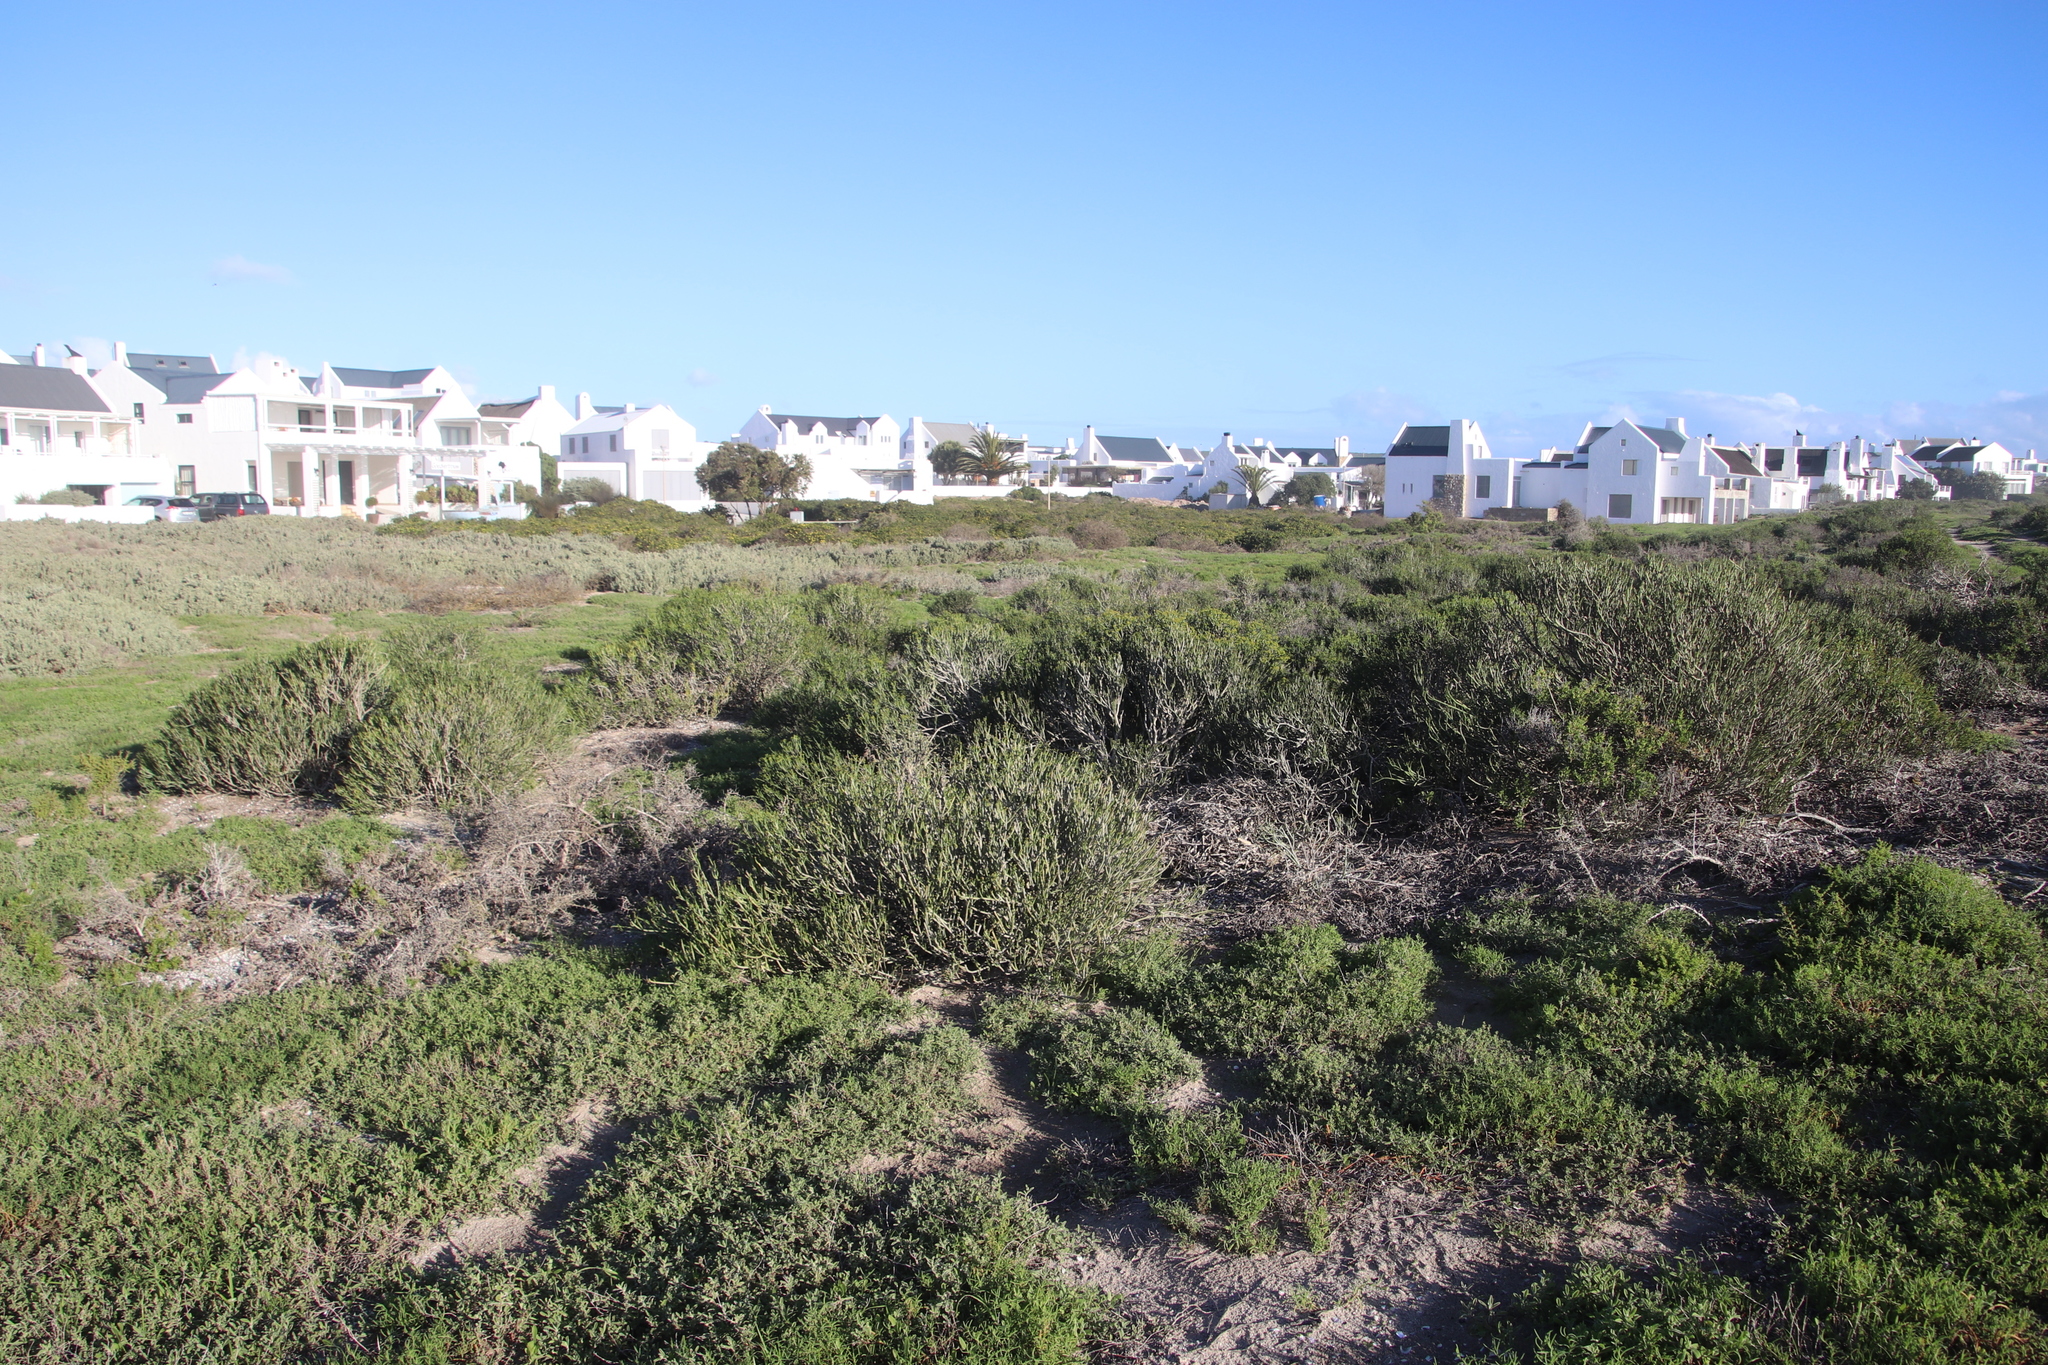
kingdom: Plantae
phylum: Tracheophyta
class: Magnoliopsida
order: Malpighiales
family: Euphorbiaceae
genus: Euphorbia
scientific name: Euphorbia burmanni
